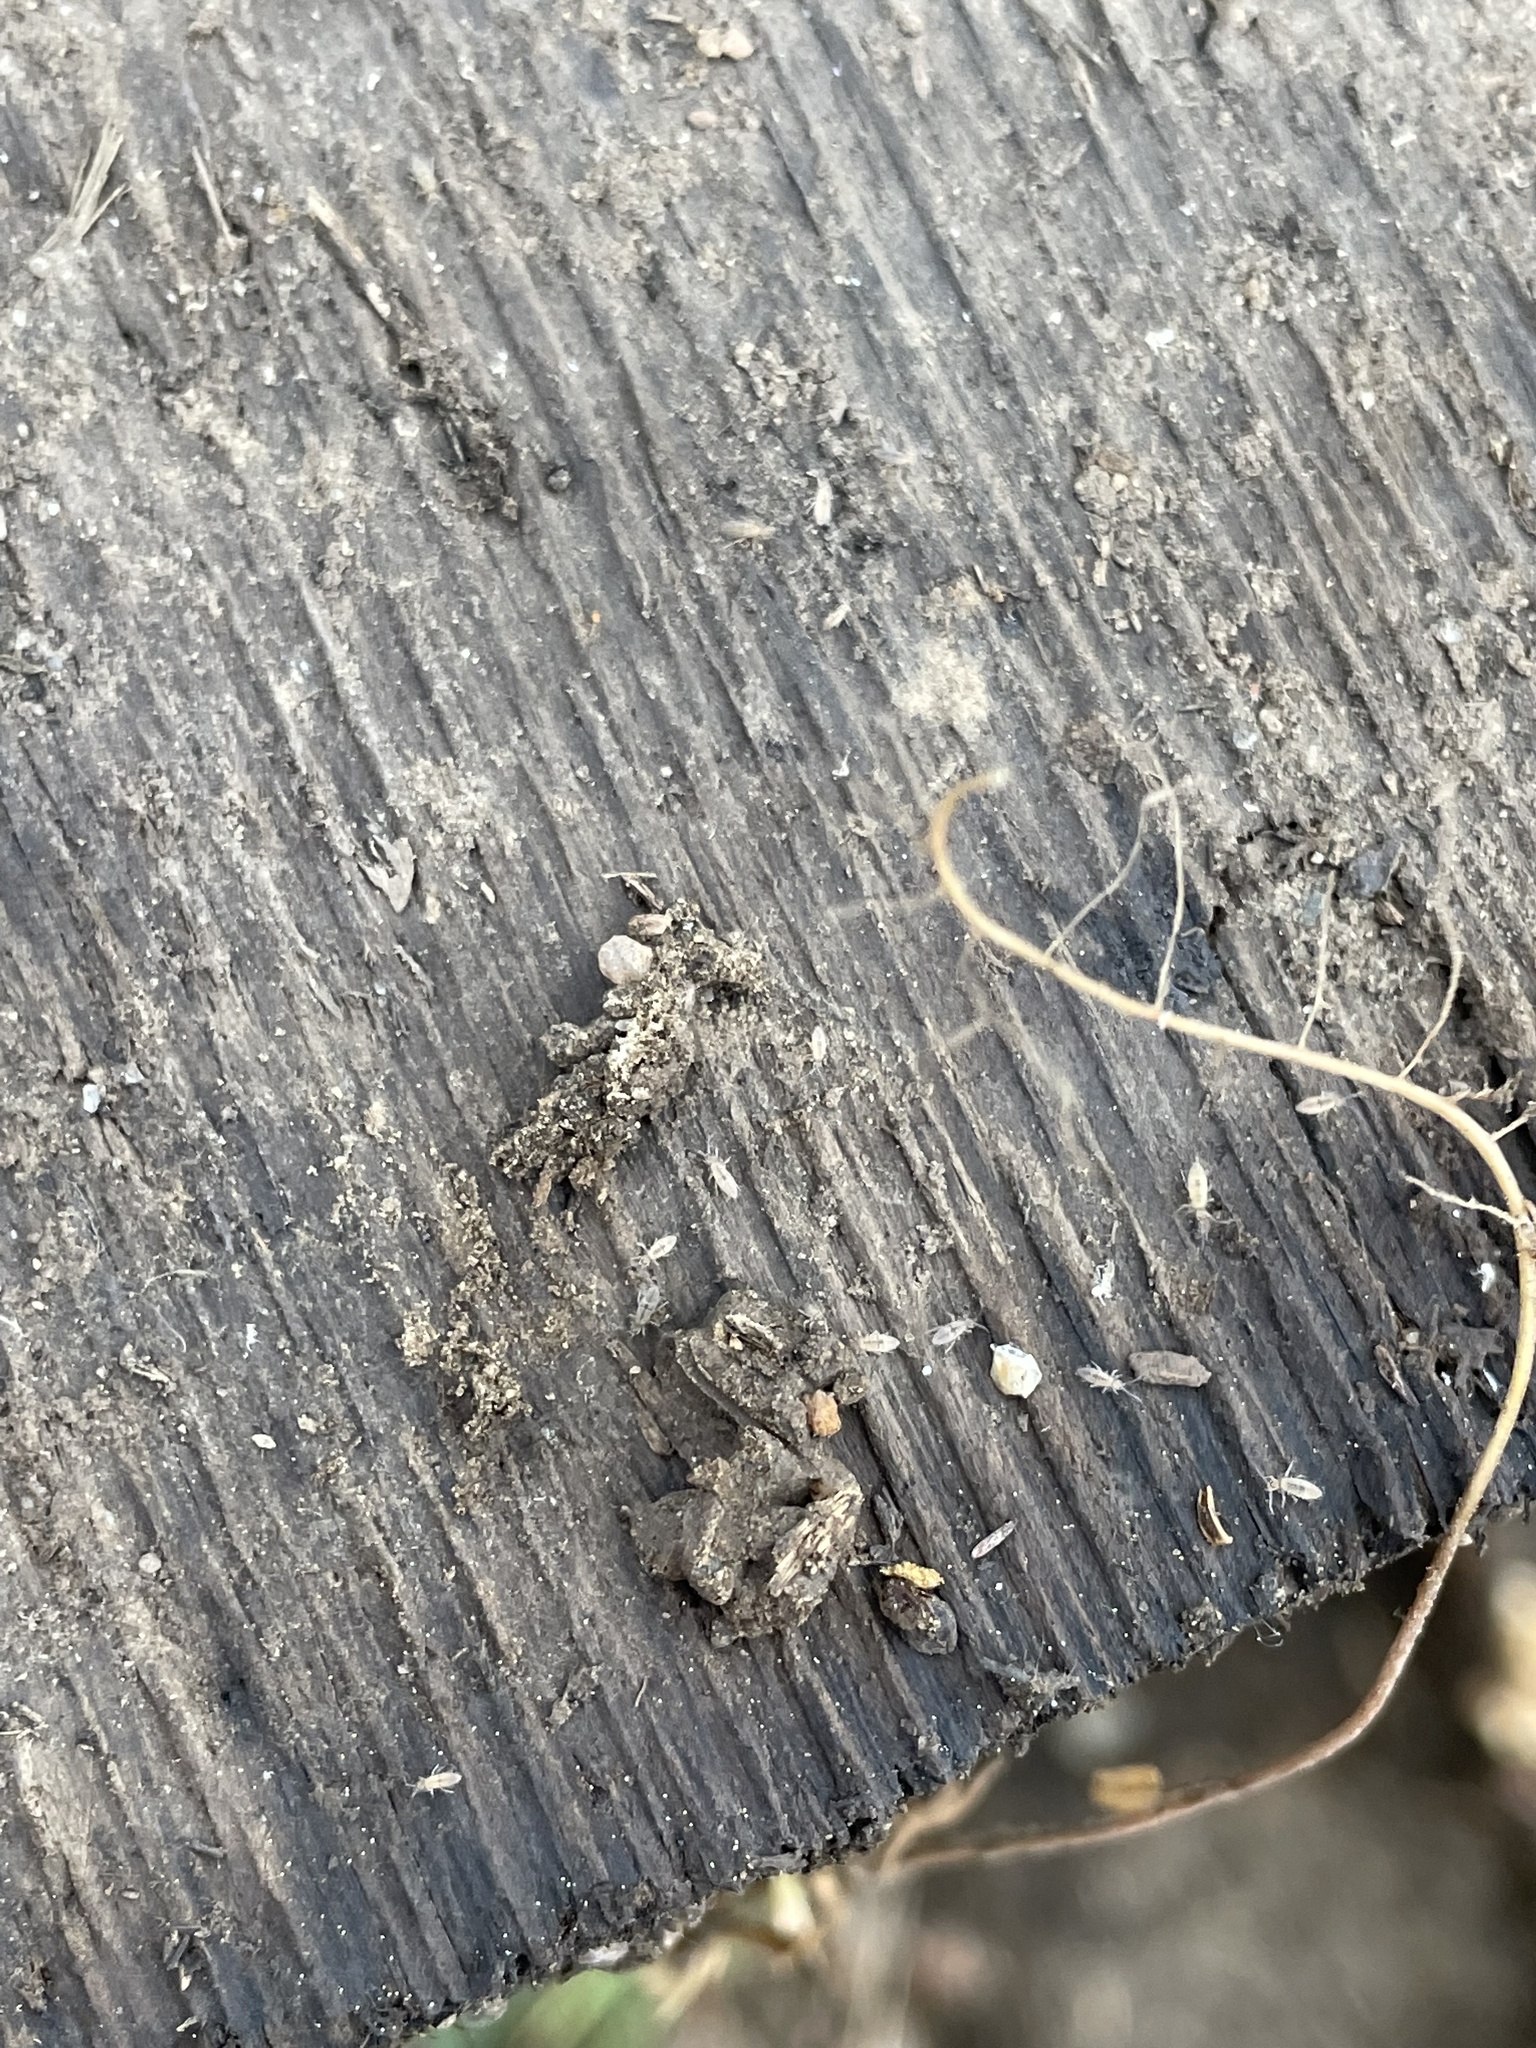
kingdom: Animalia
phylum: Arthropoda
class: Collembola
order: Entomobryomorpha
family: Entomobryidae
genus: Entomobrya
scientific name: Entomobrya unostrigata
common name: Springtail
